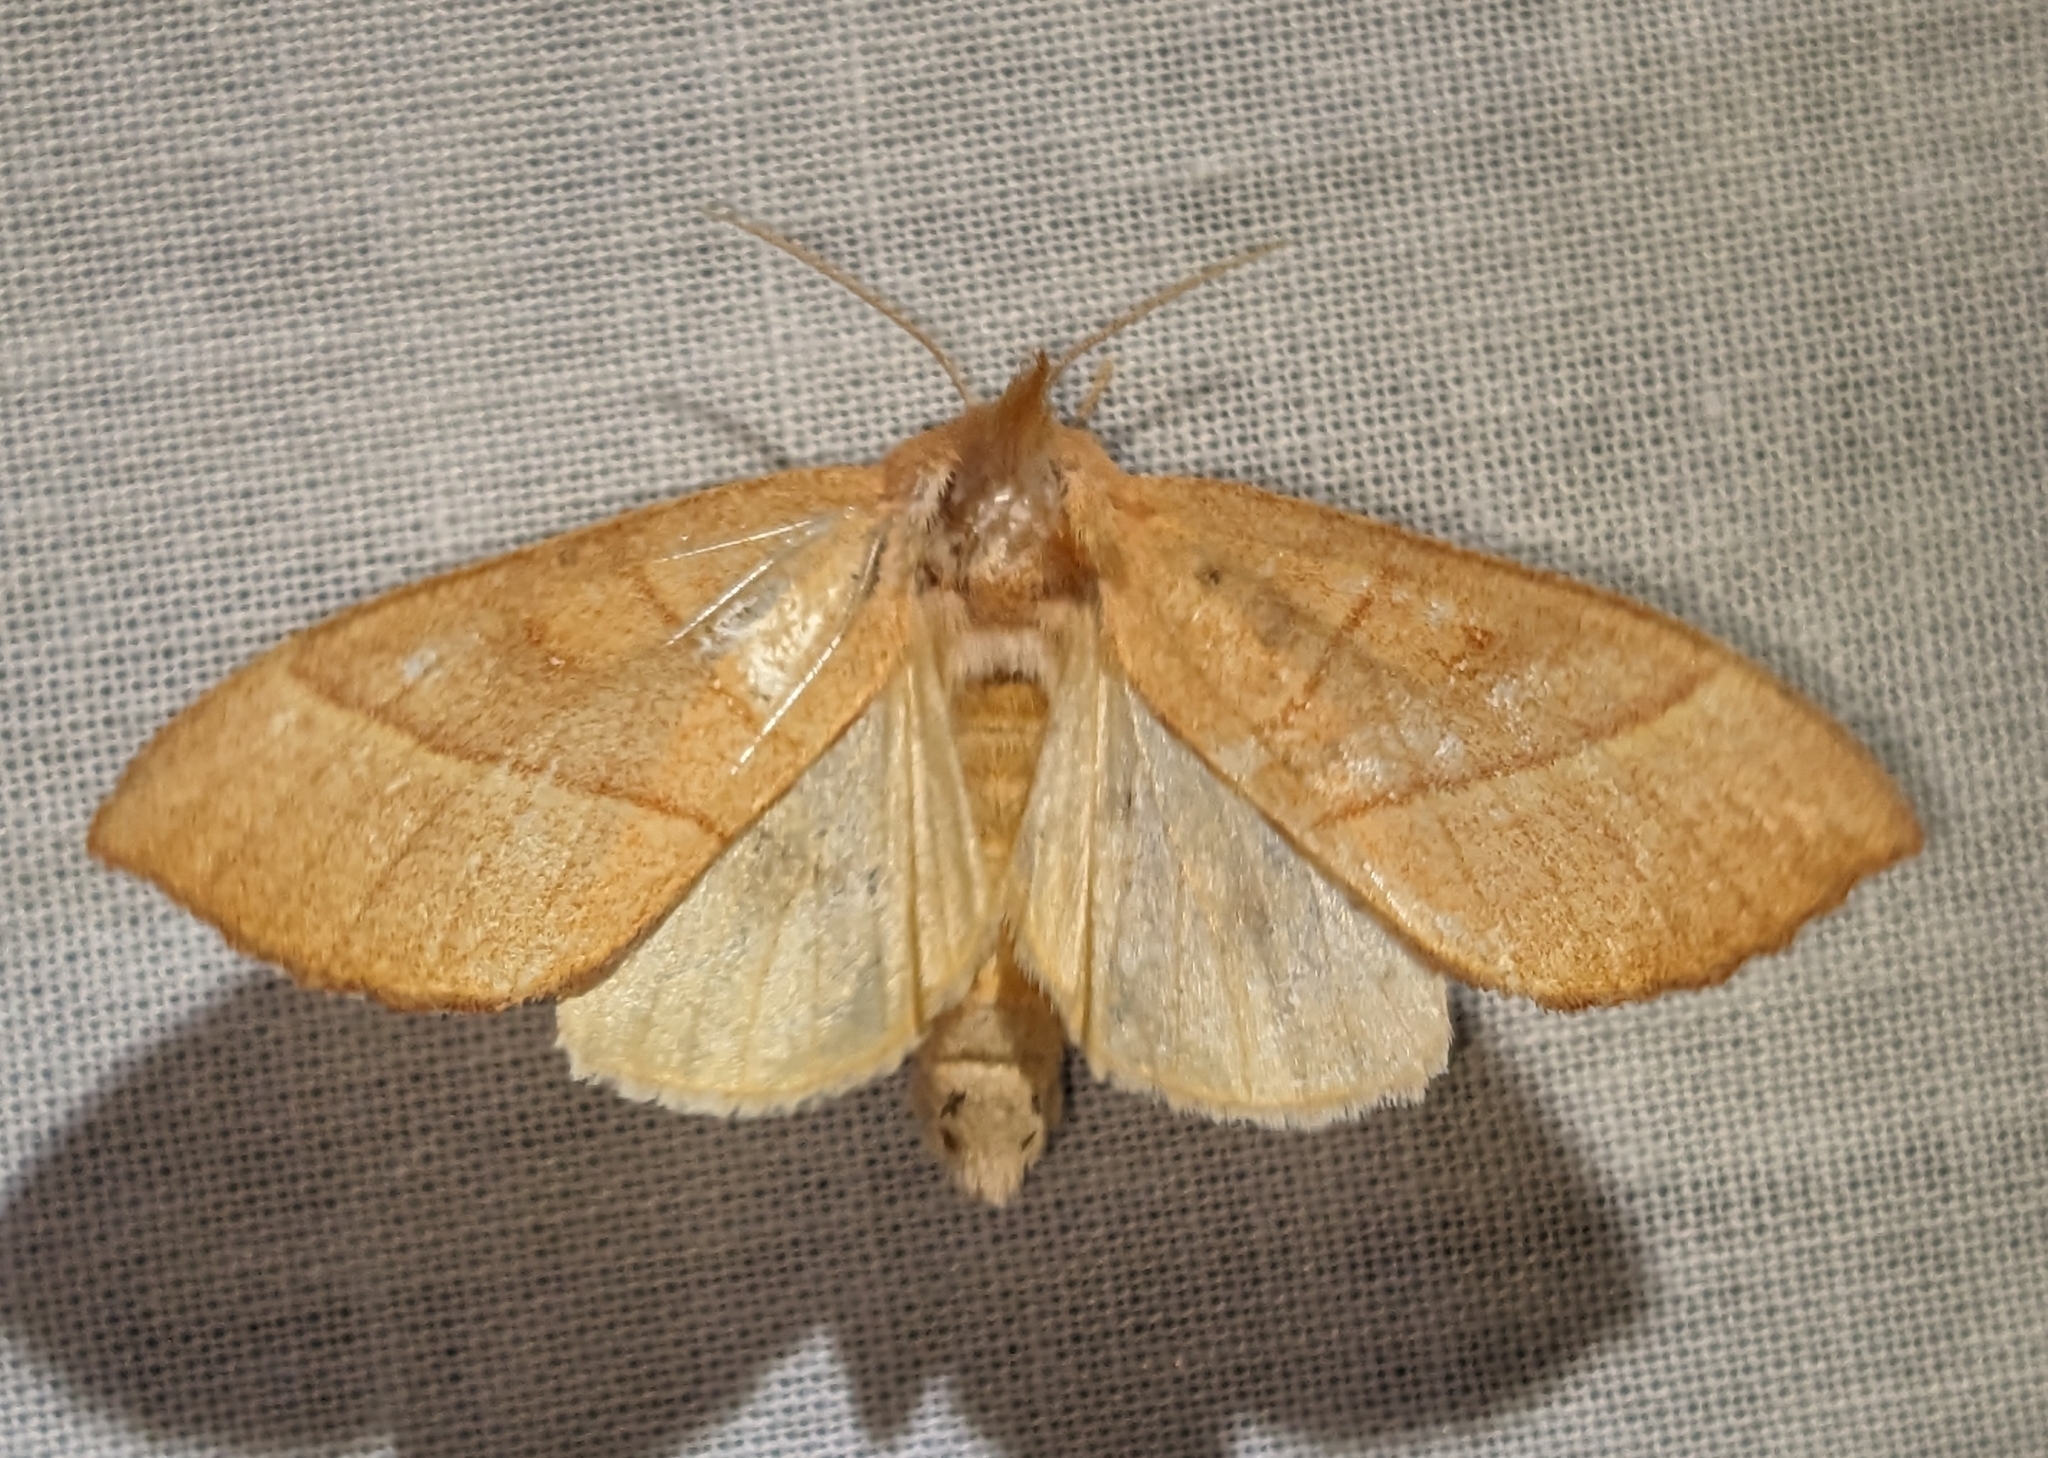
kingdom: Animalia
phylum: Arthropoda
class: Insecta
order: Lepidoptera
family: Notodontidae
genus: Nadata
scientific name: Nadata gibbosa
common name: White-dotted prominent
